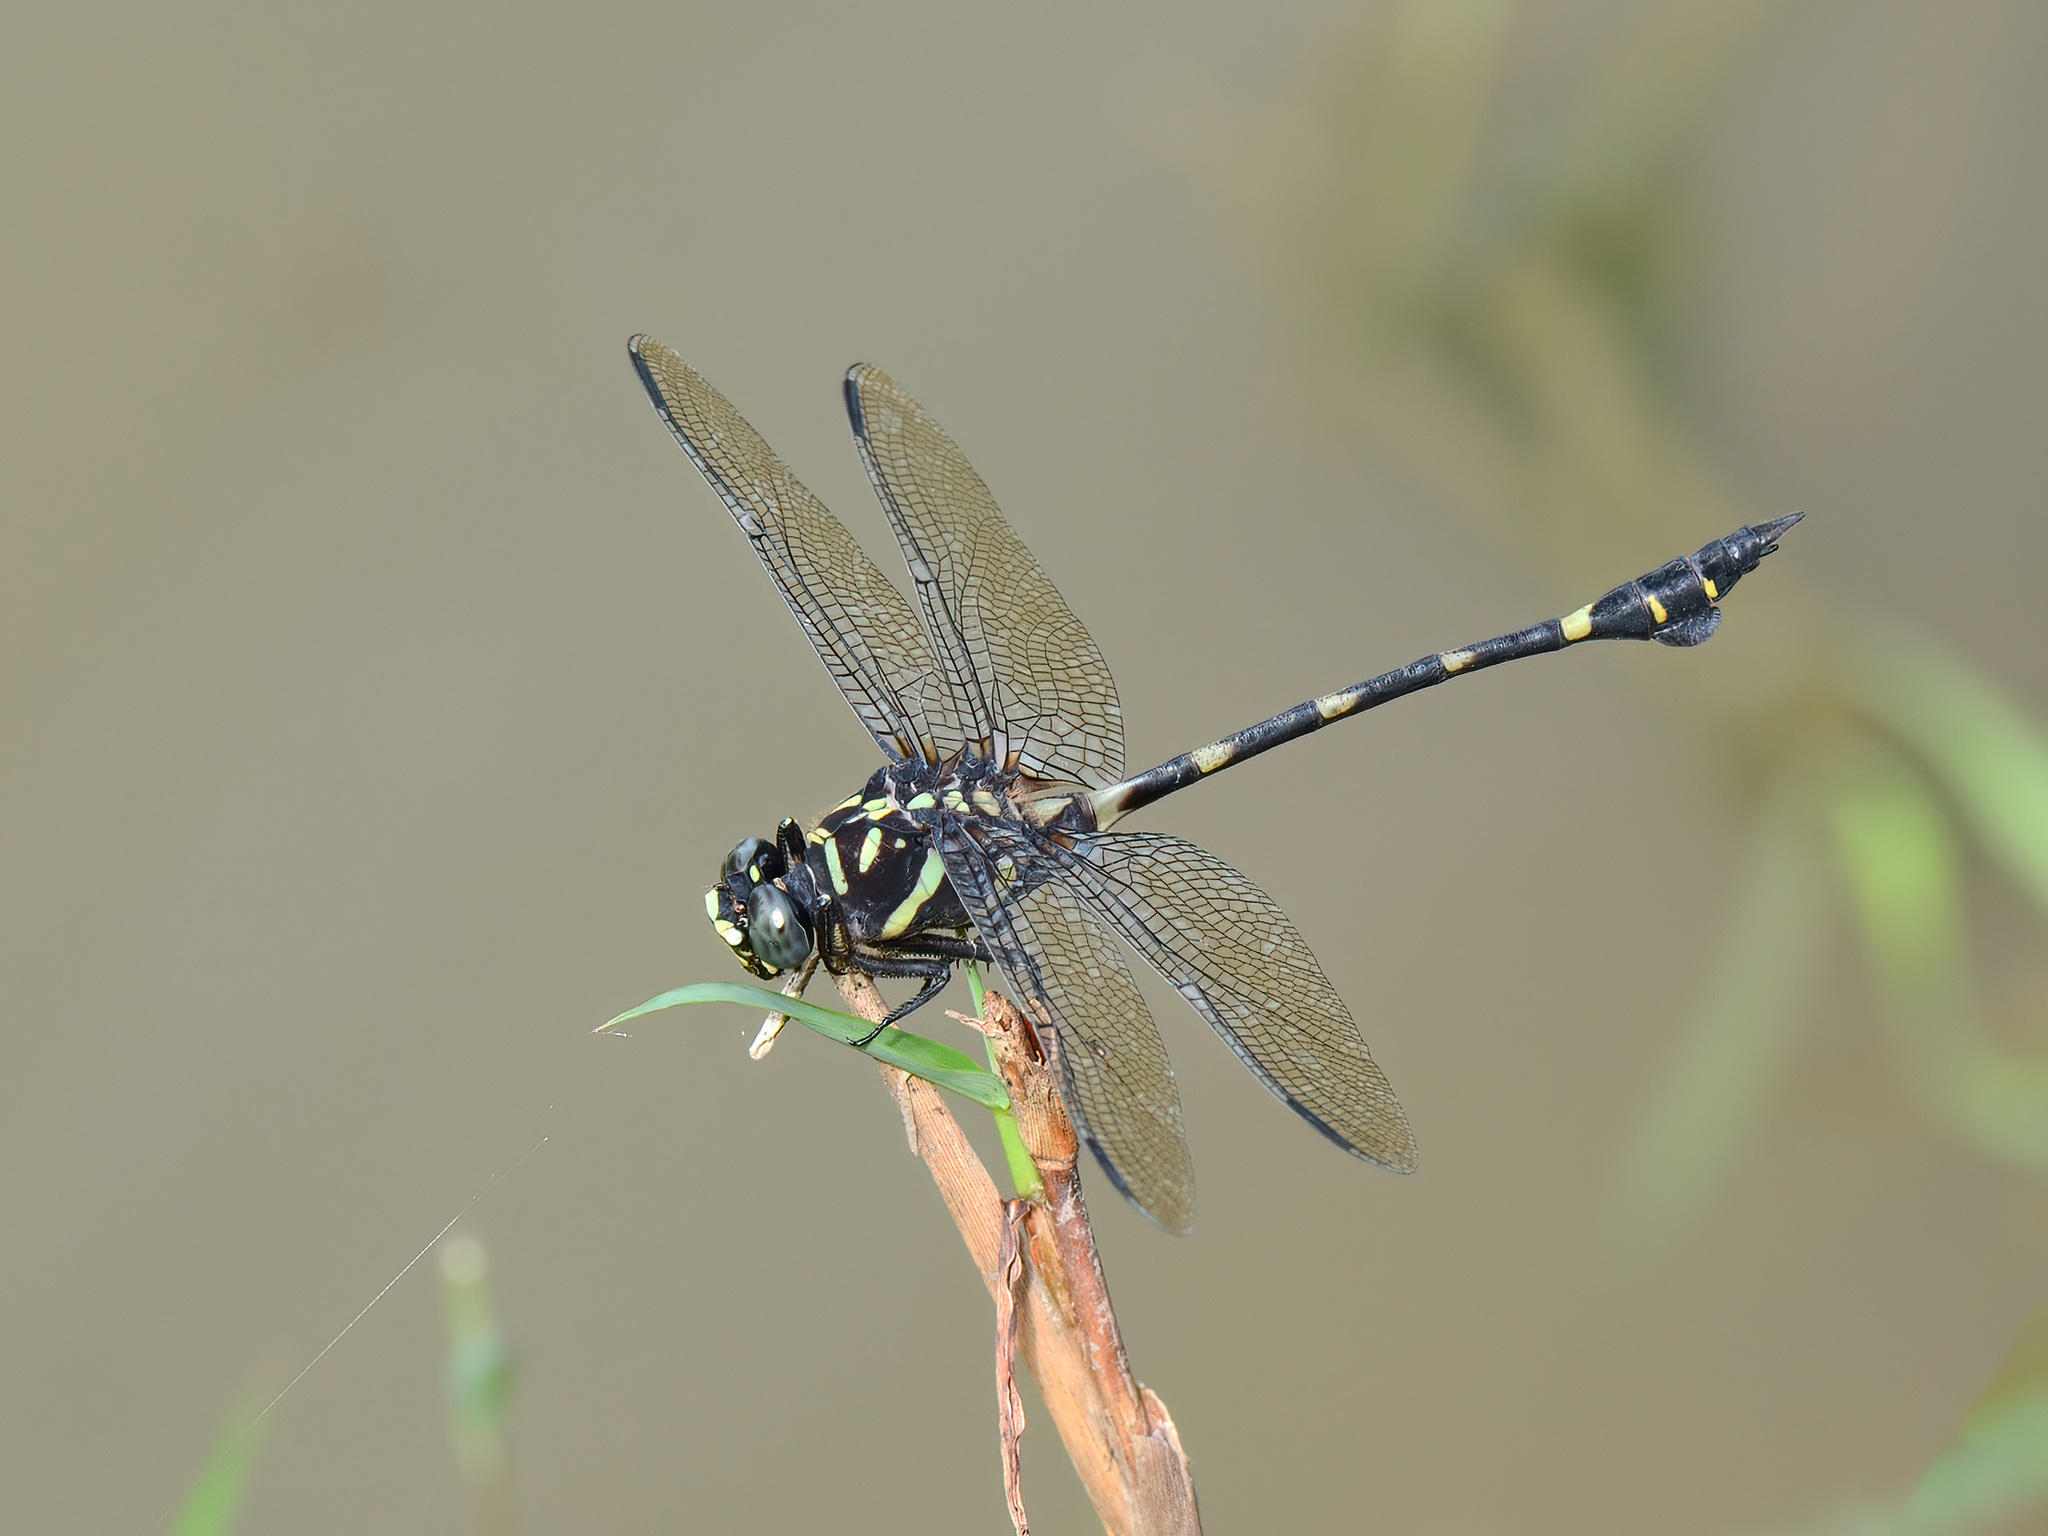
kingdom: Animalia
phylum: Arthropoda
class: Insecta
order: Odonata
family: Gomphidae
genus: Ictinogomphus
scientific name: Ictinogomphus decoratus
